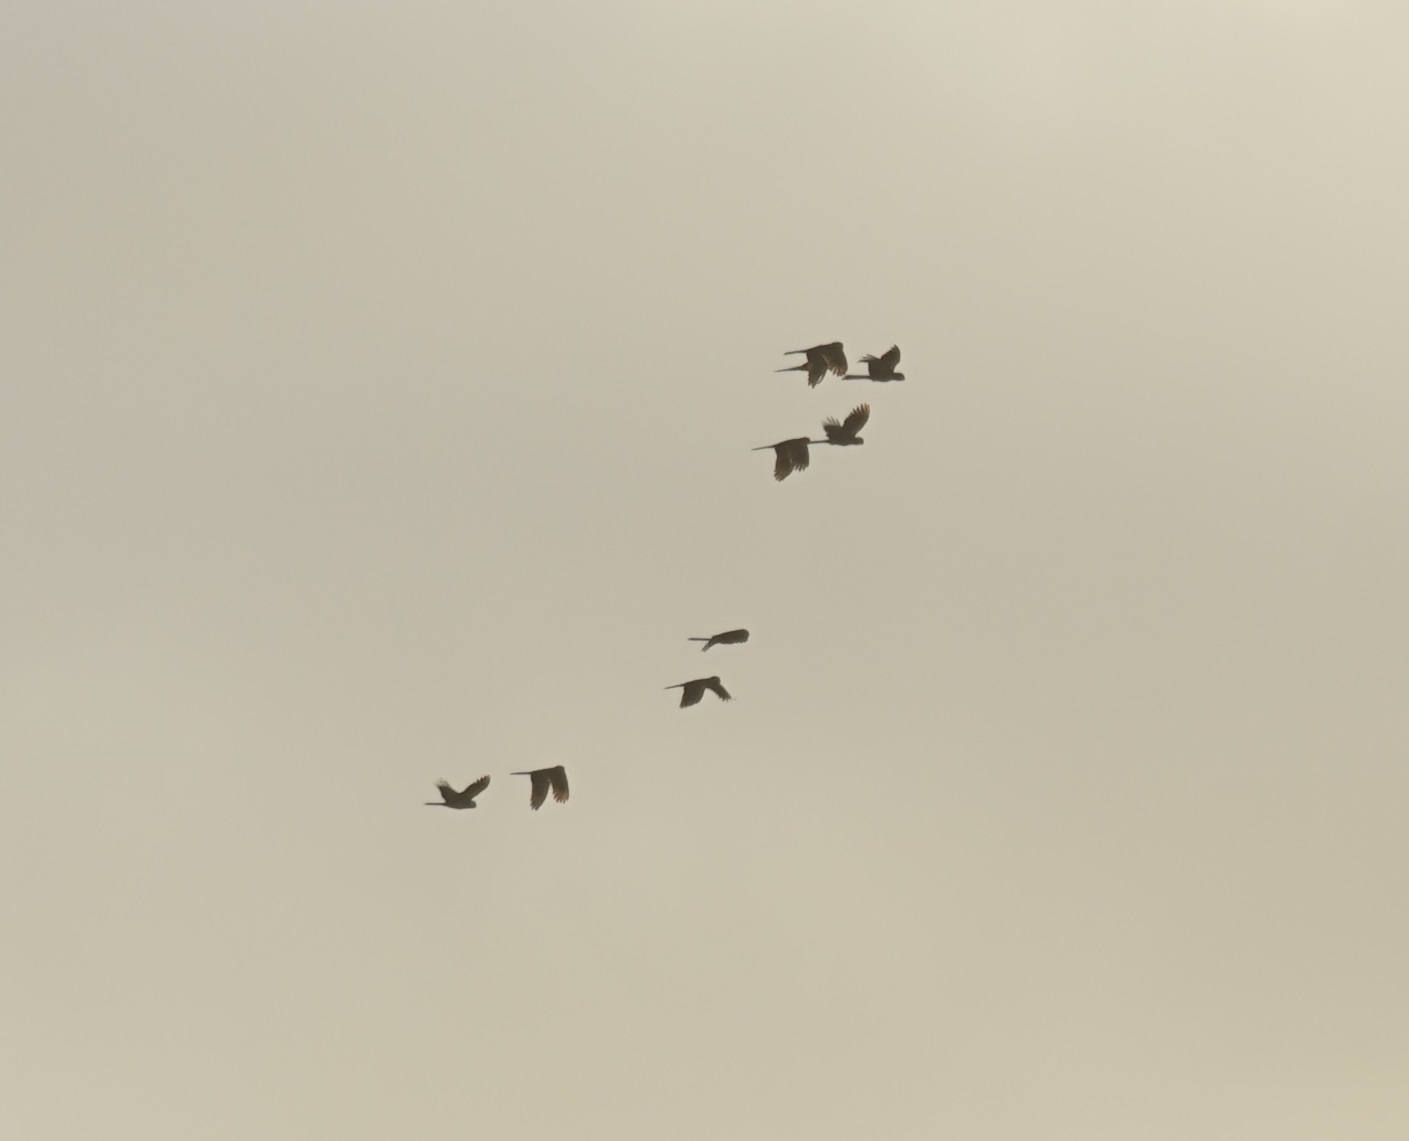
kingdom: Animalia
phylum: Chordata
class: Aves
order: Psittaciformes
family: Cacatuidae
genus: Zanda
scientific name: Zanda funerea
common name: Yellow-tailed black-cockatoo
